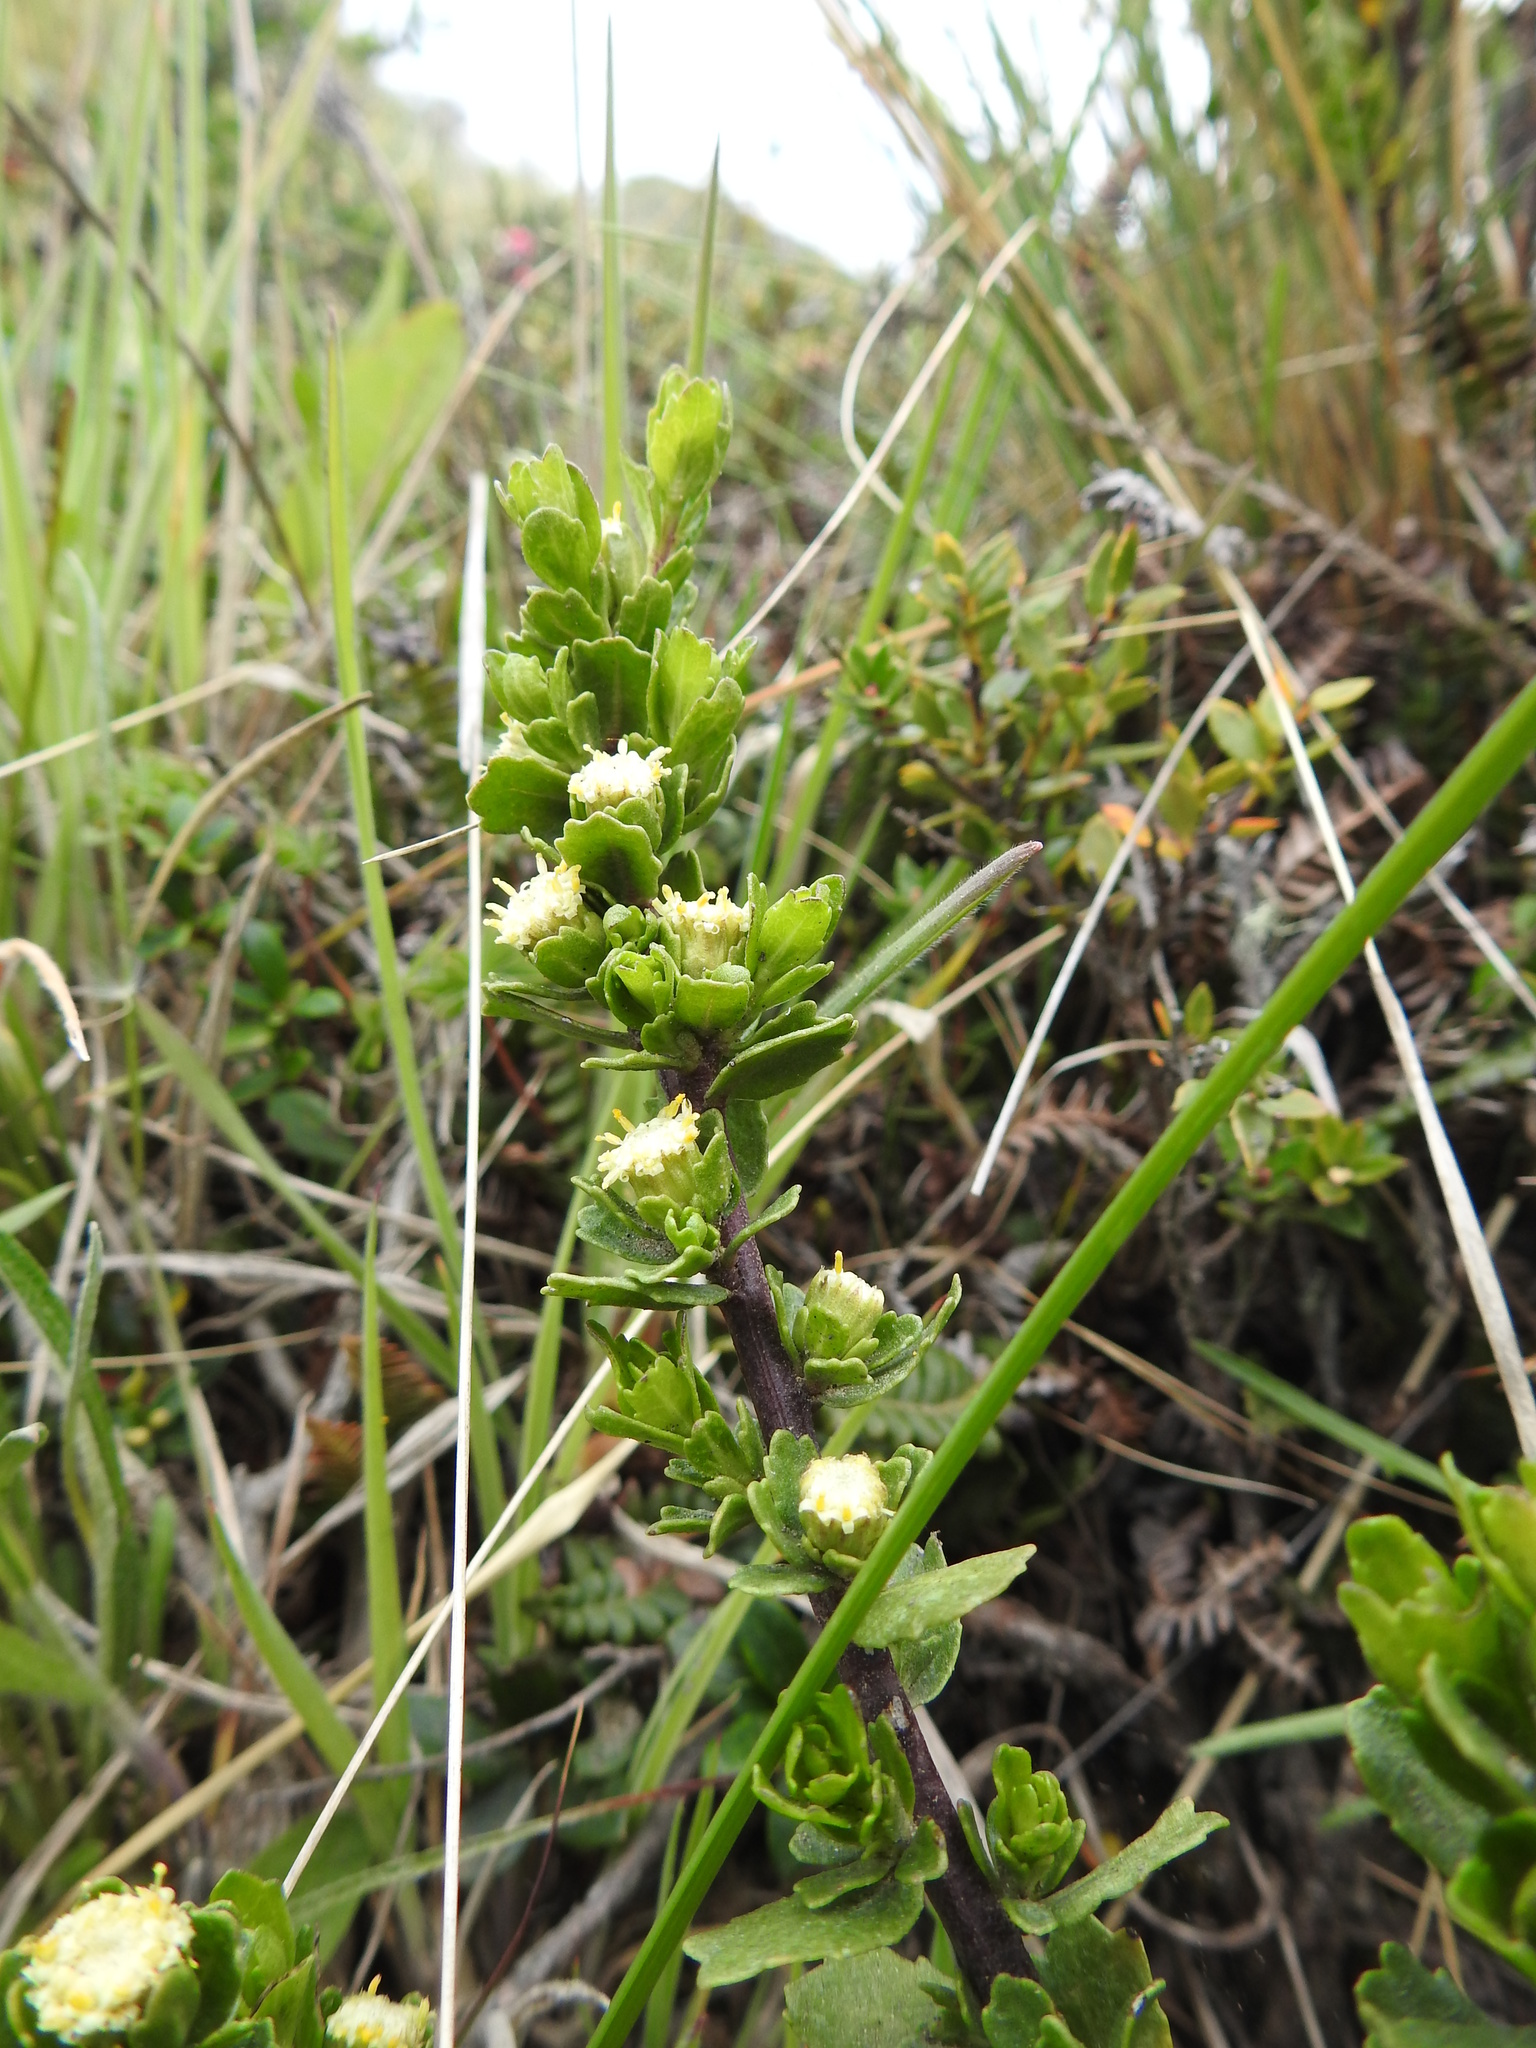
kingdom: Plantae
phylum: Tracheophyta
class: Magnoliopsida
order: Asterales
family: Asteraceae
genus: Baccharis
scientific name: Baccharis patagonica
